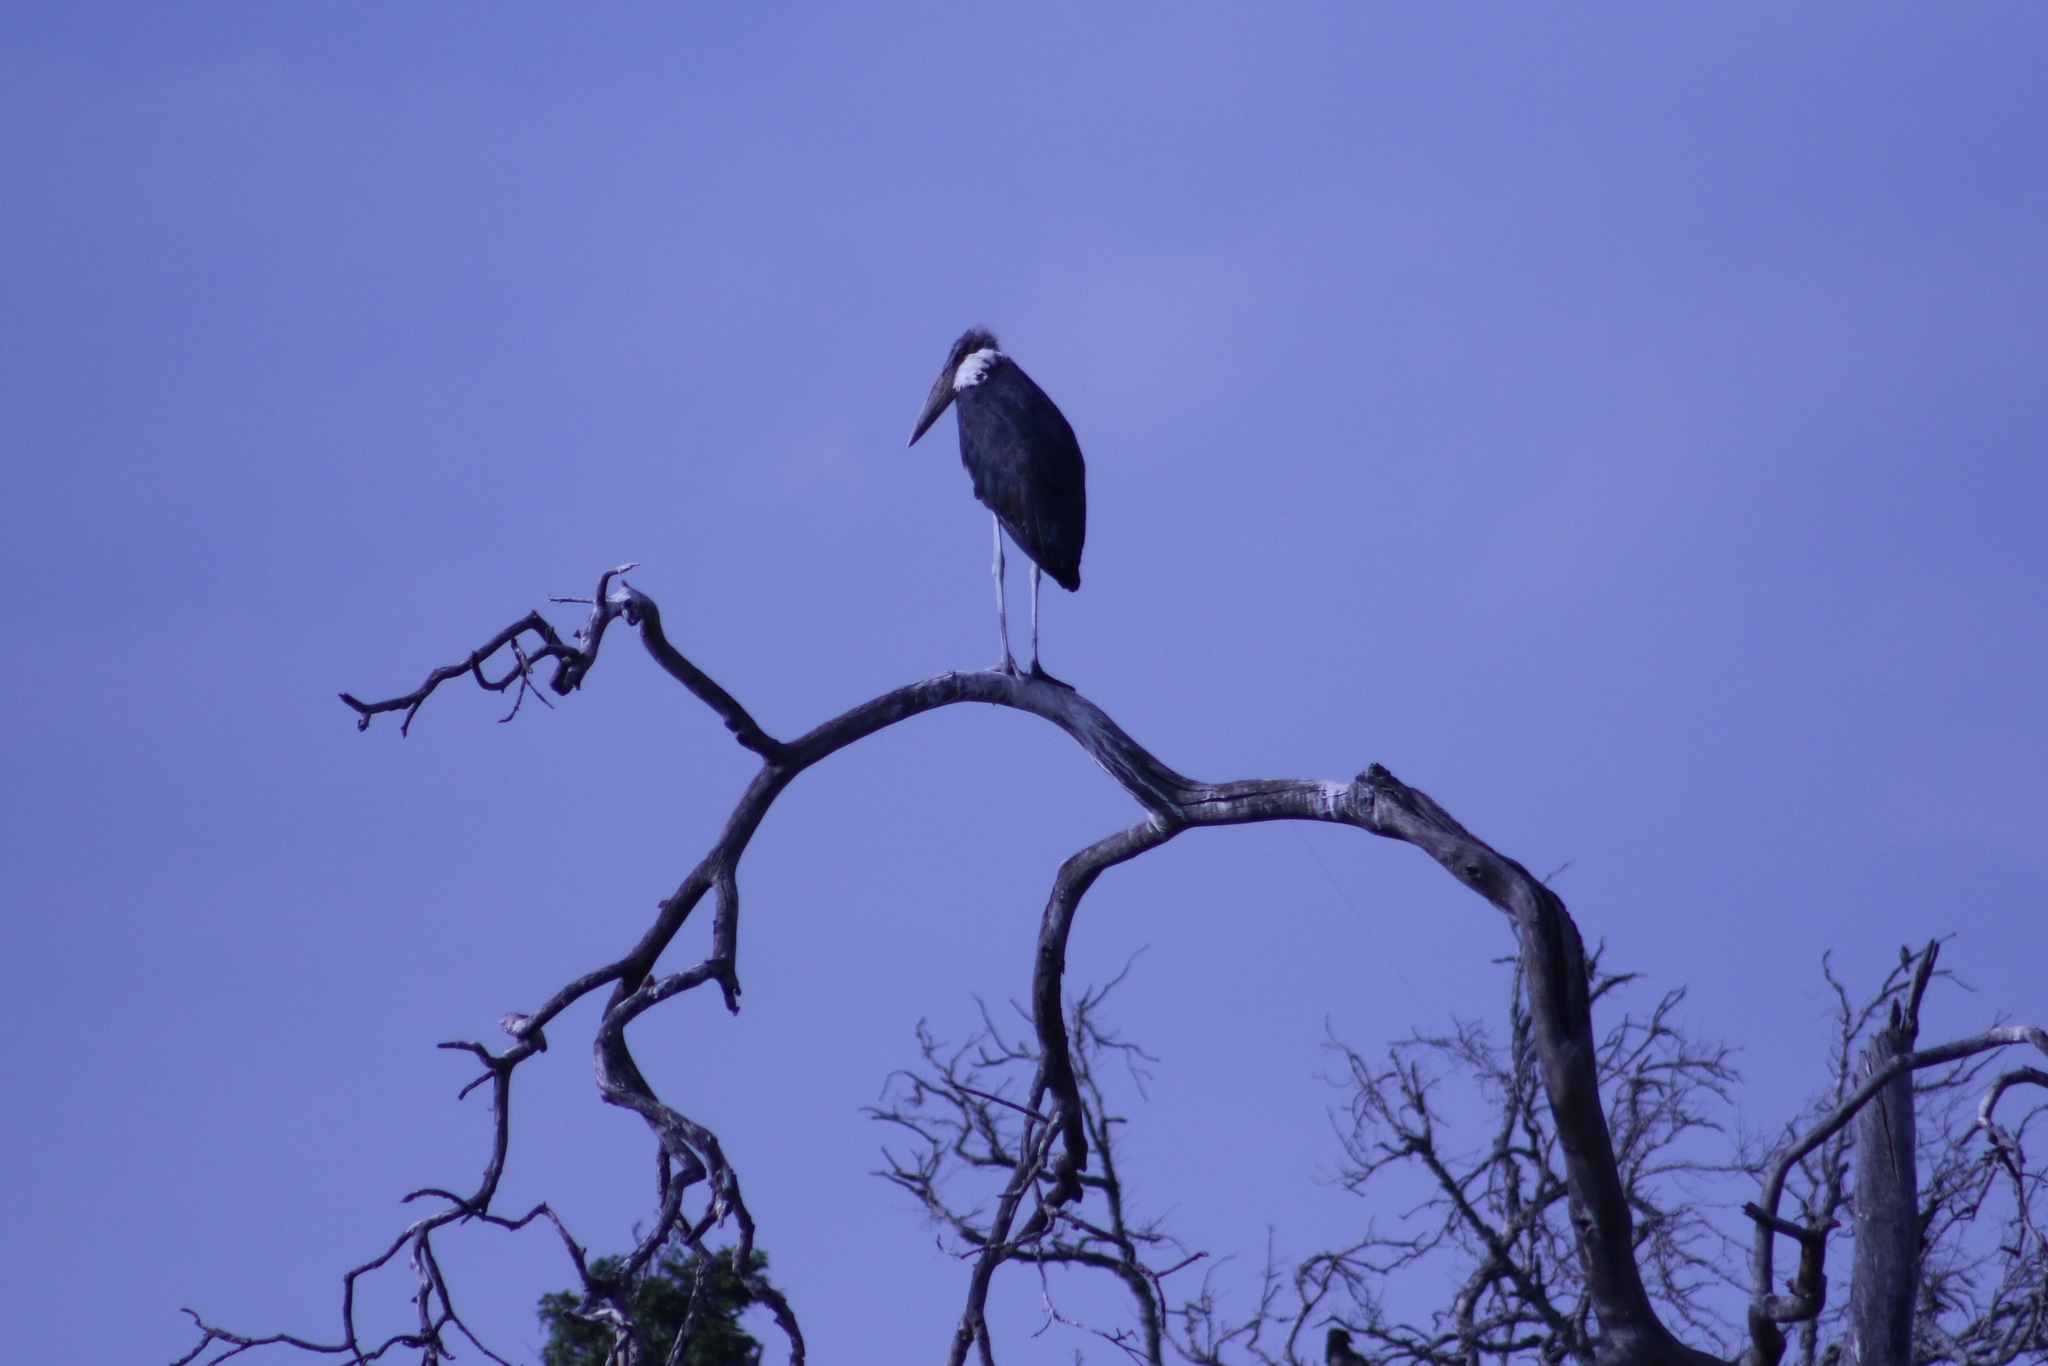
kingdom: Animalia
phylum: Chordata
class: Aves
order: Ciconiiformes
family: Ciconiidae
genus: Leptoptilos
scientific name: Leptoptilos crumenifer
